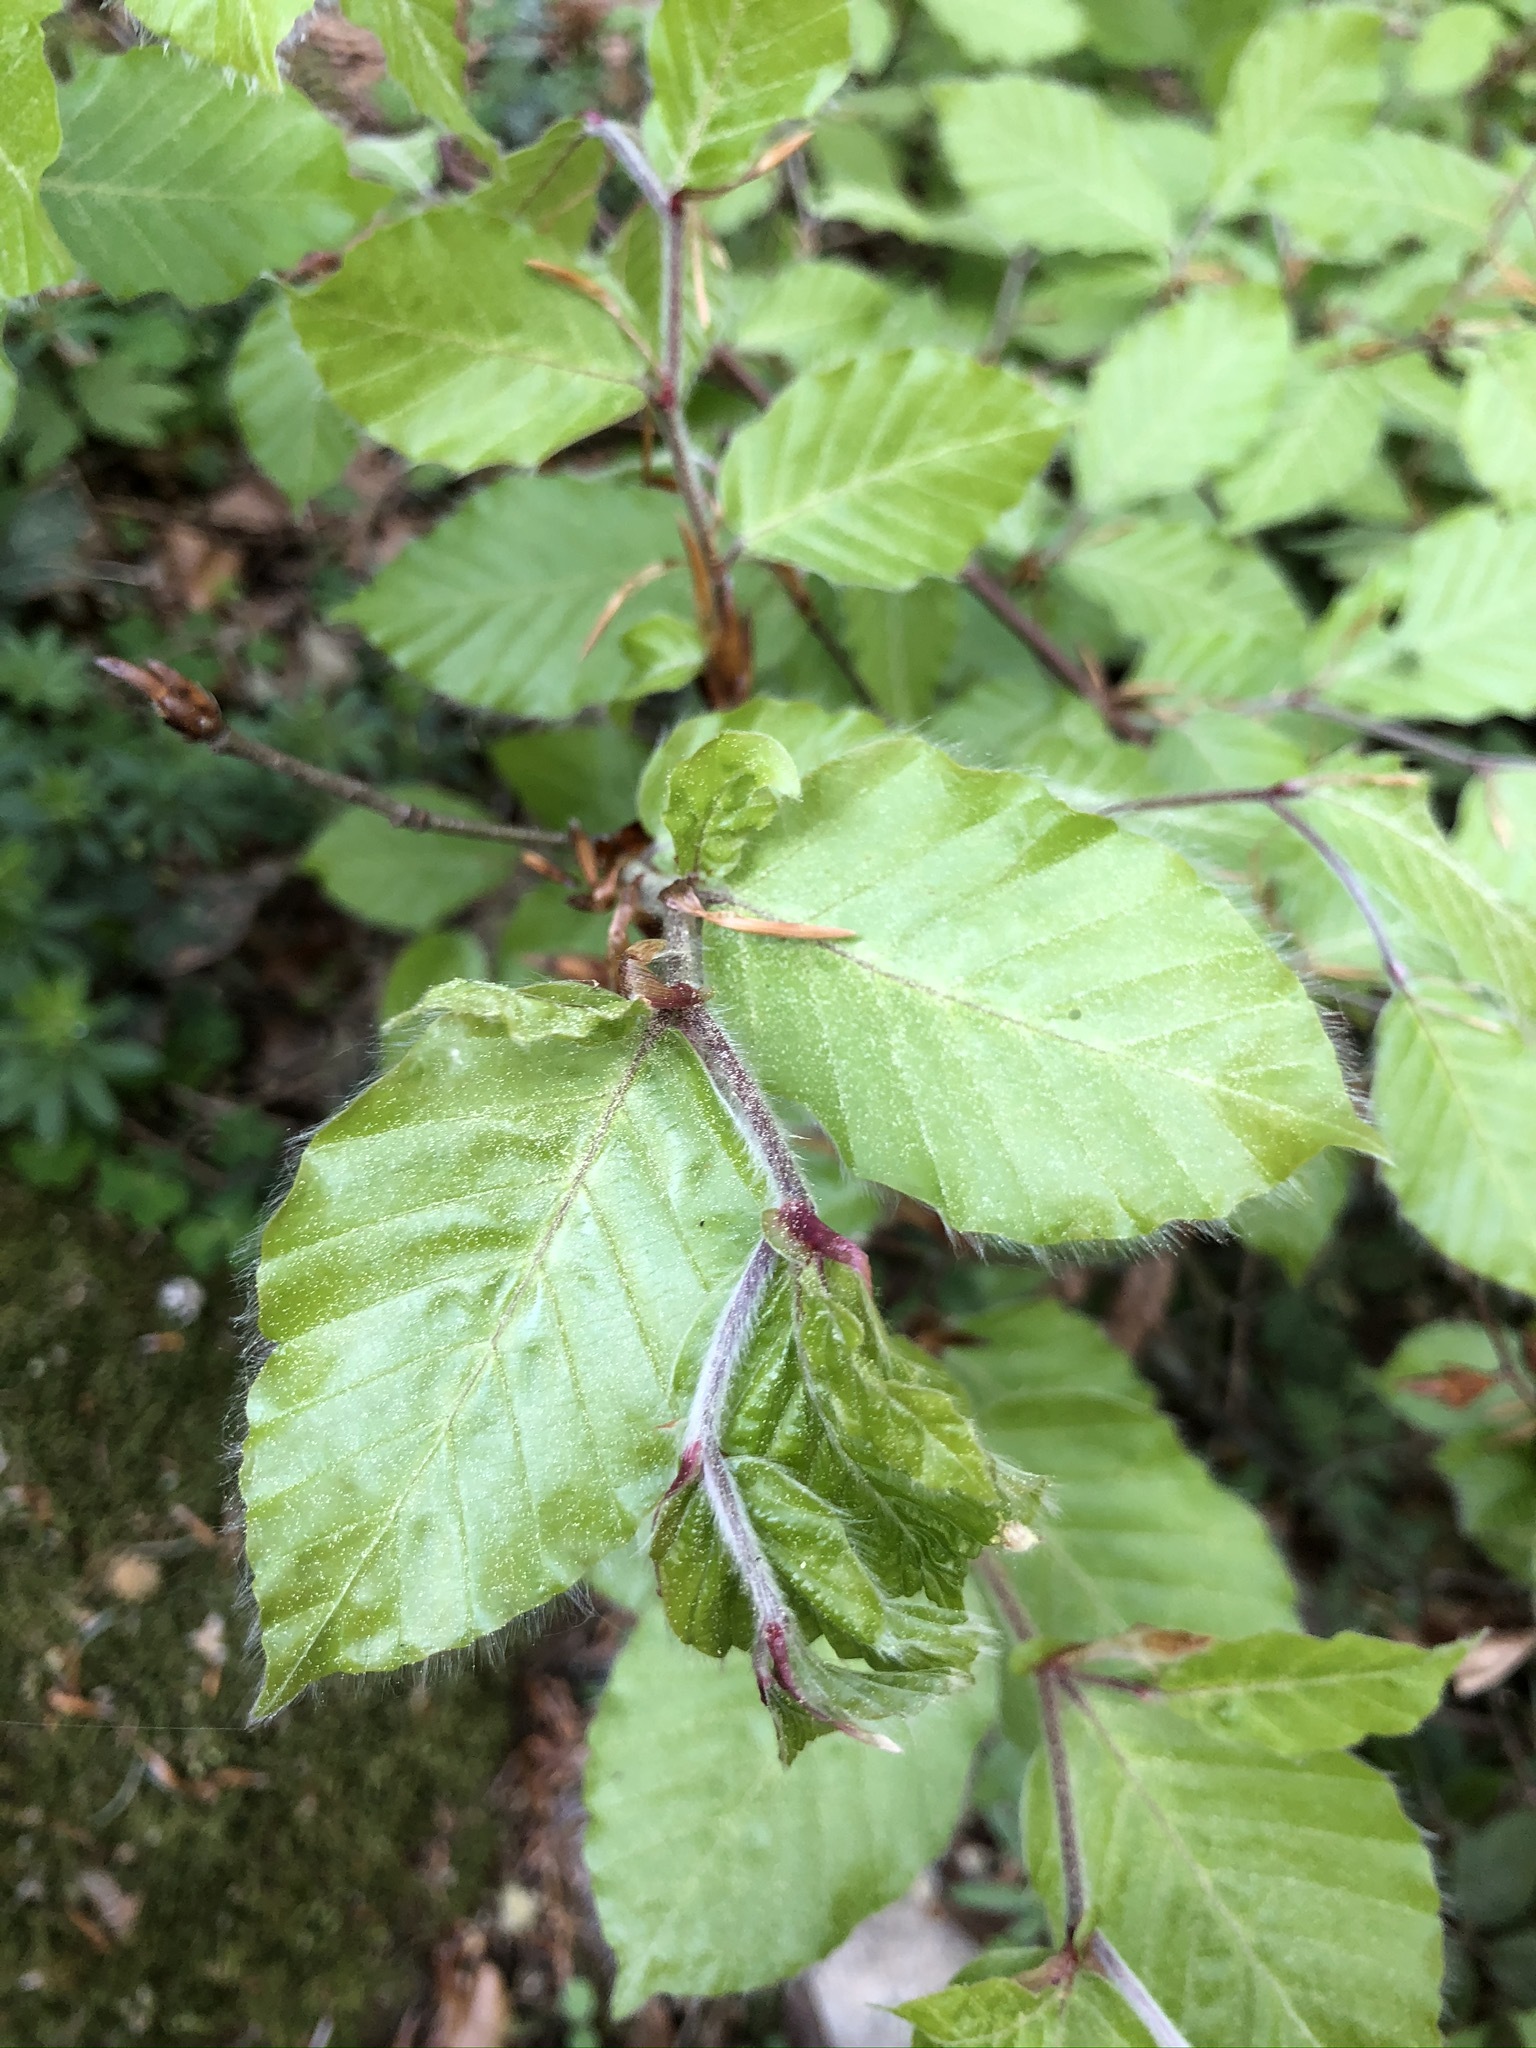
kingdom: Plantae
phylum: Tracheophyta
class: Magnoliopsida
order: Fagales
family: Fagaceae
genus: Fagus
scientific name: Fagus sylvatica
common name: Beech
